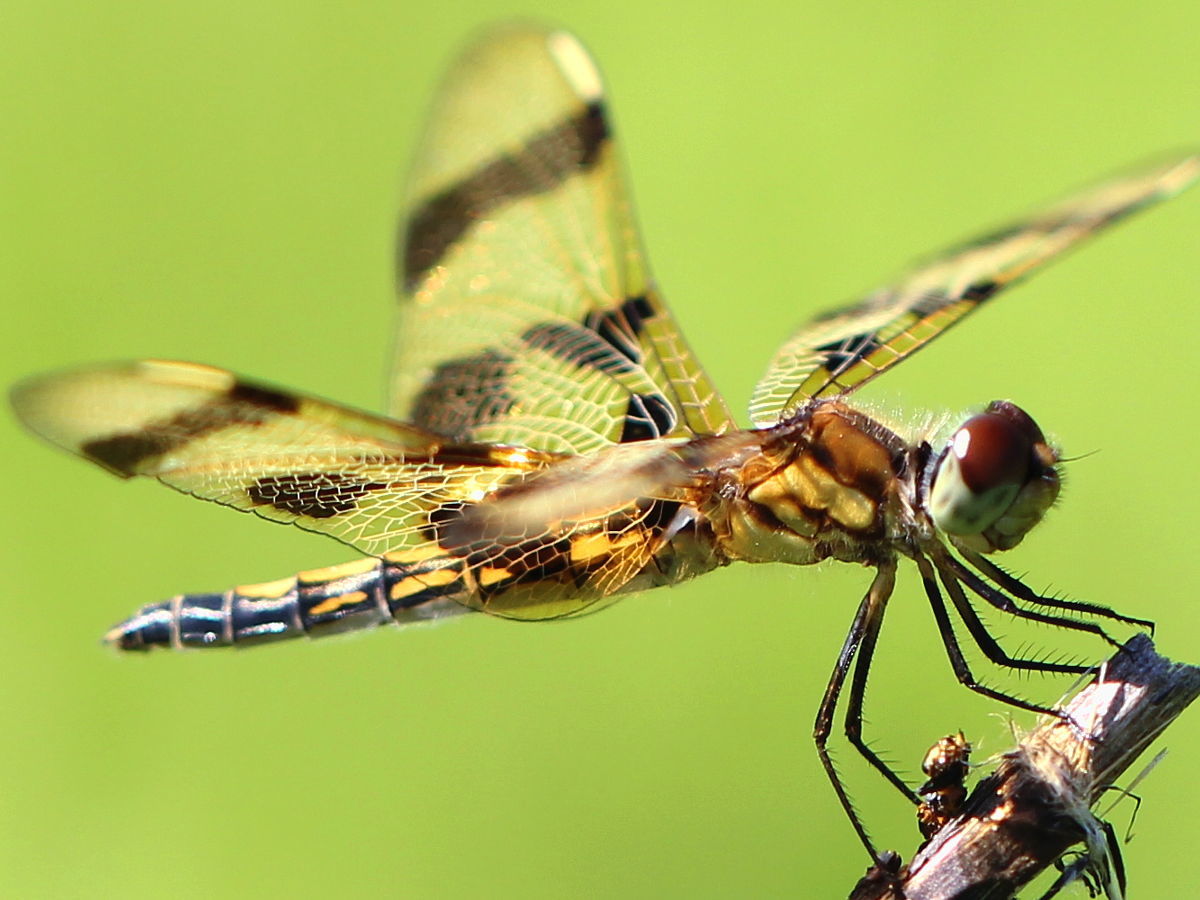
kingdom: Animalia
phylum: Arthropoda
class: Insecta
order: Odonata
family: Libellulidae
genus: Celithemis
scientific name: Celithemis eponina
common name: Halloween pennant
